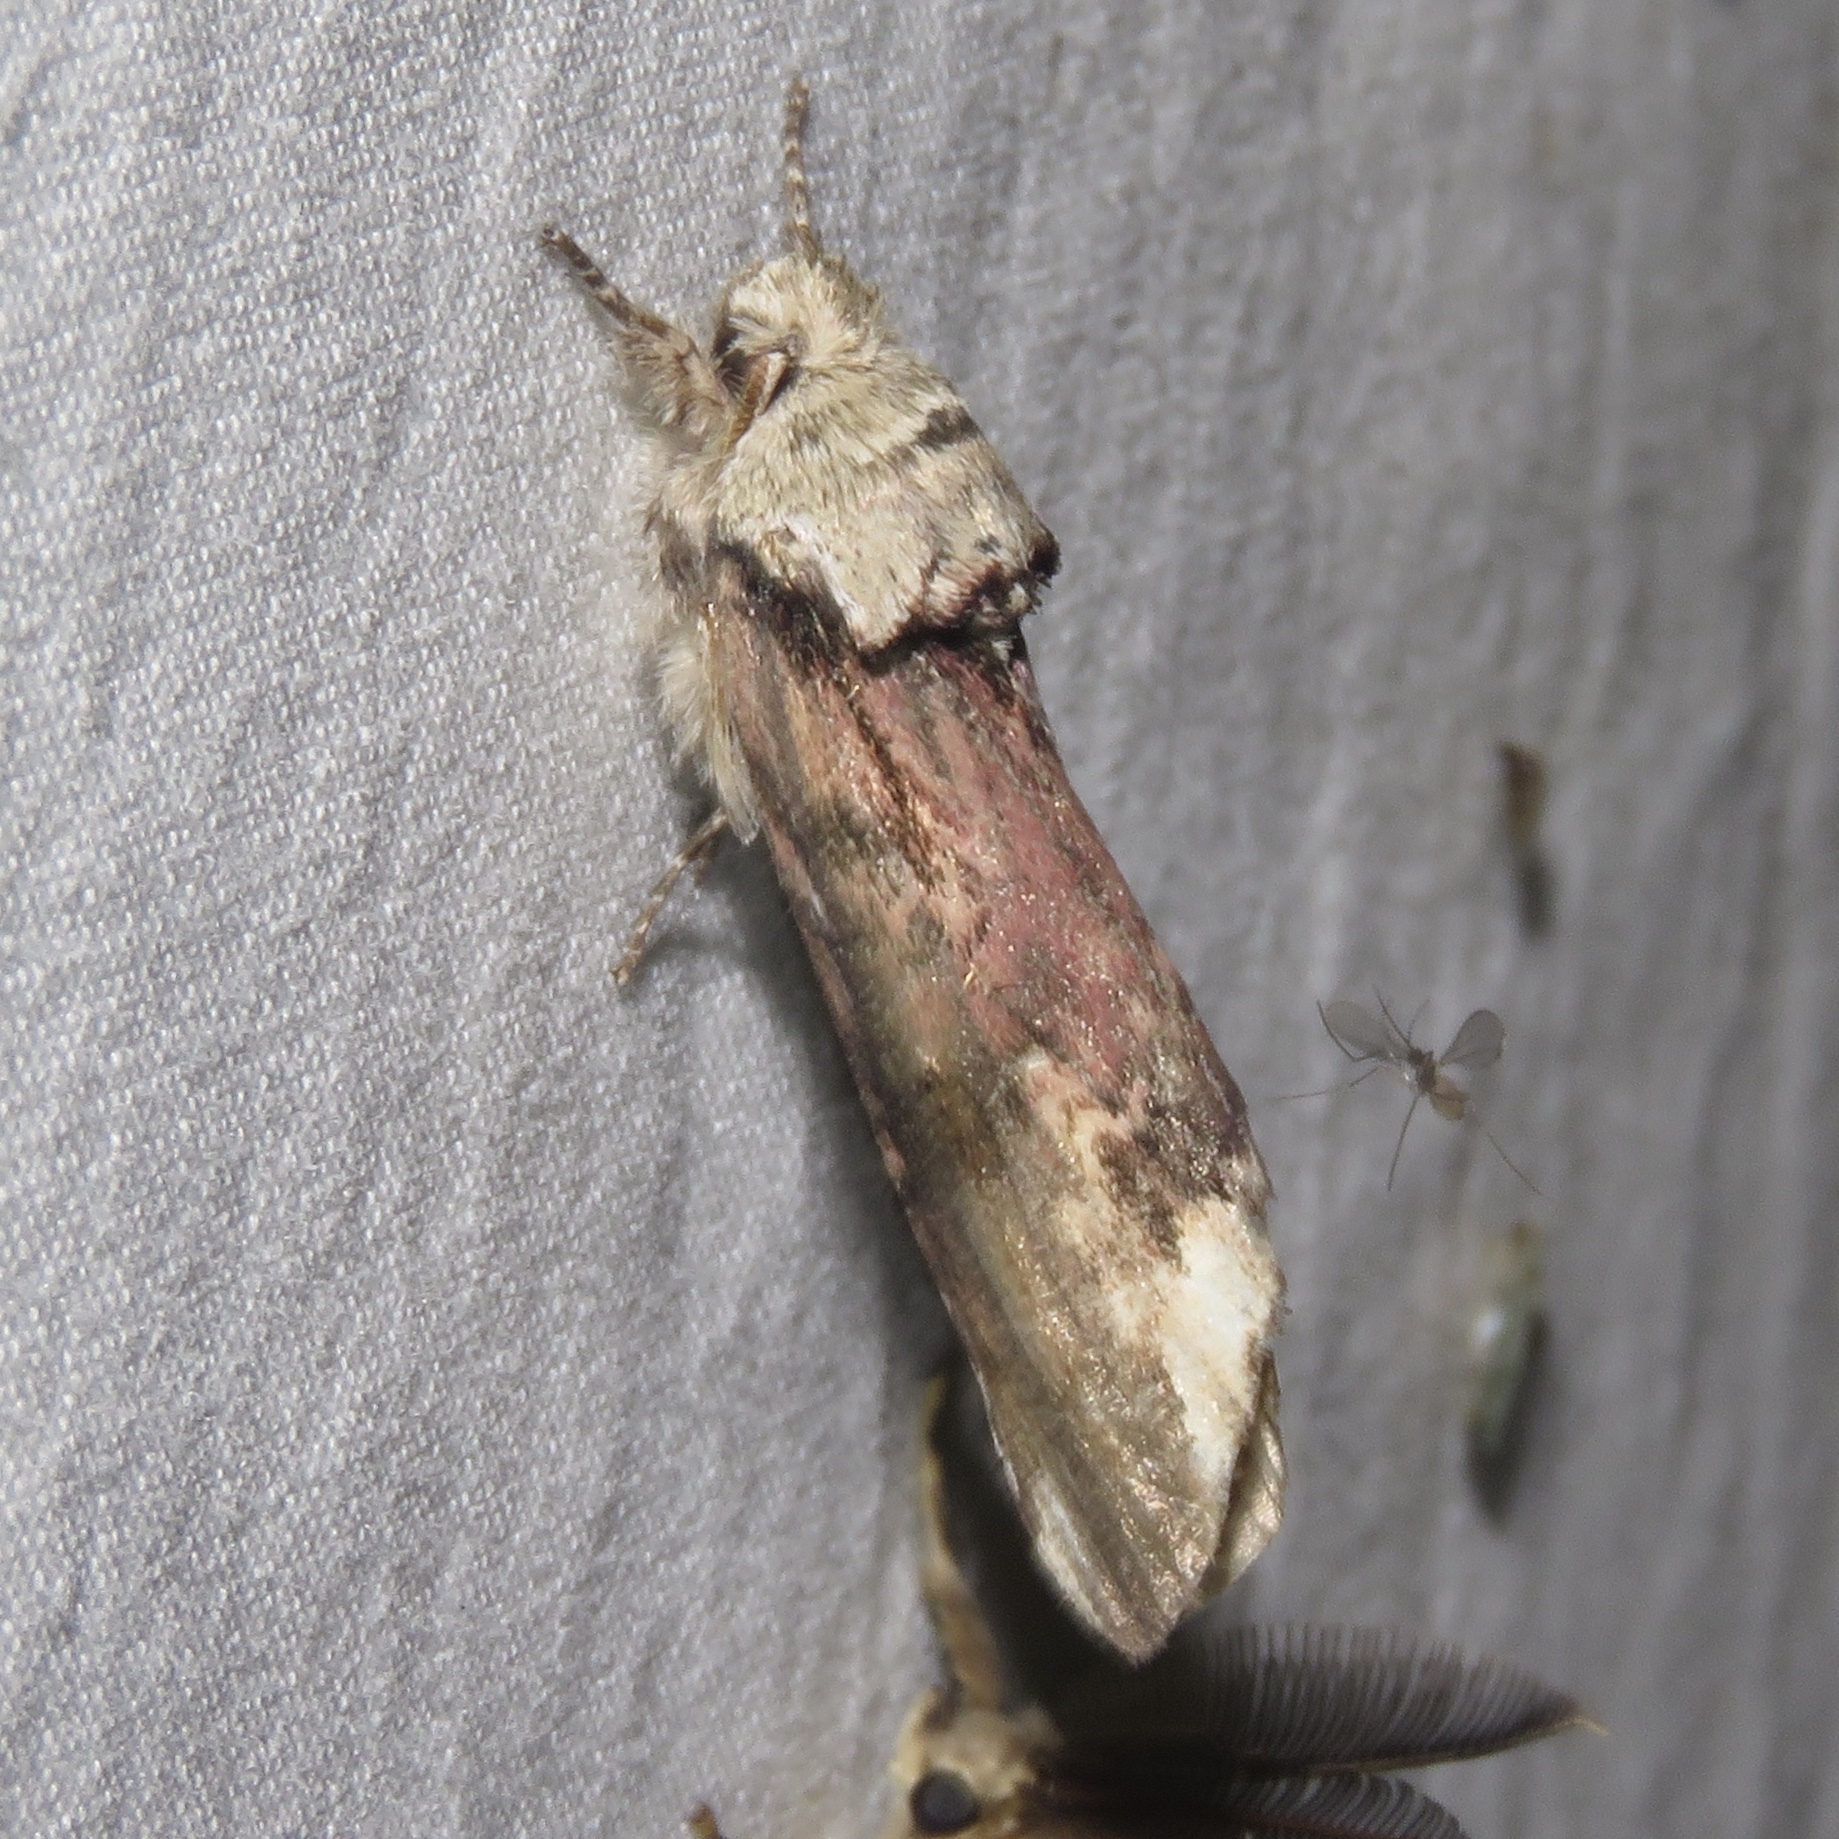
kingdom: Animalia
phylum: Arthropoda
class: Insecta
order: Lepidoptera
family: Notodontidae
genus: Schizura
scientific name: Schizura
